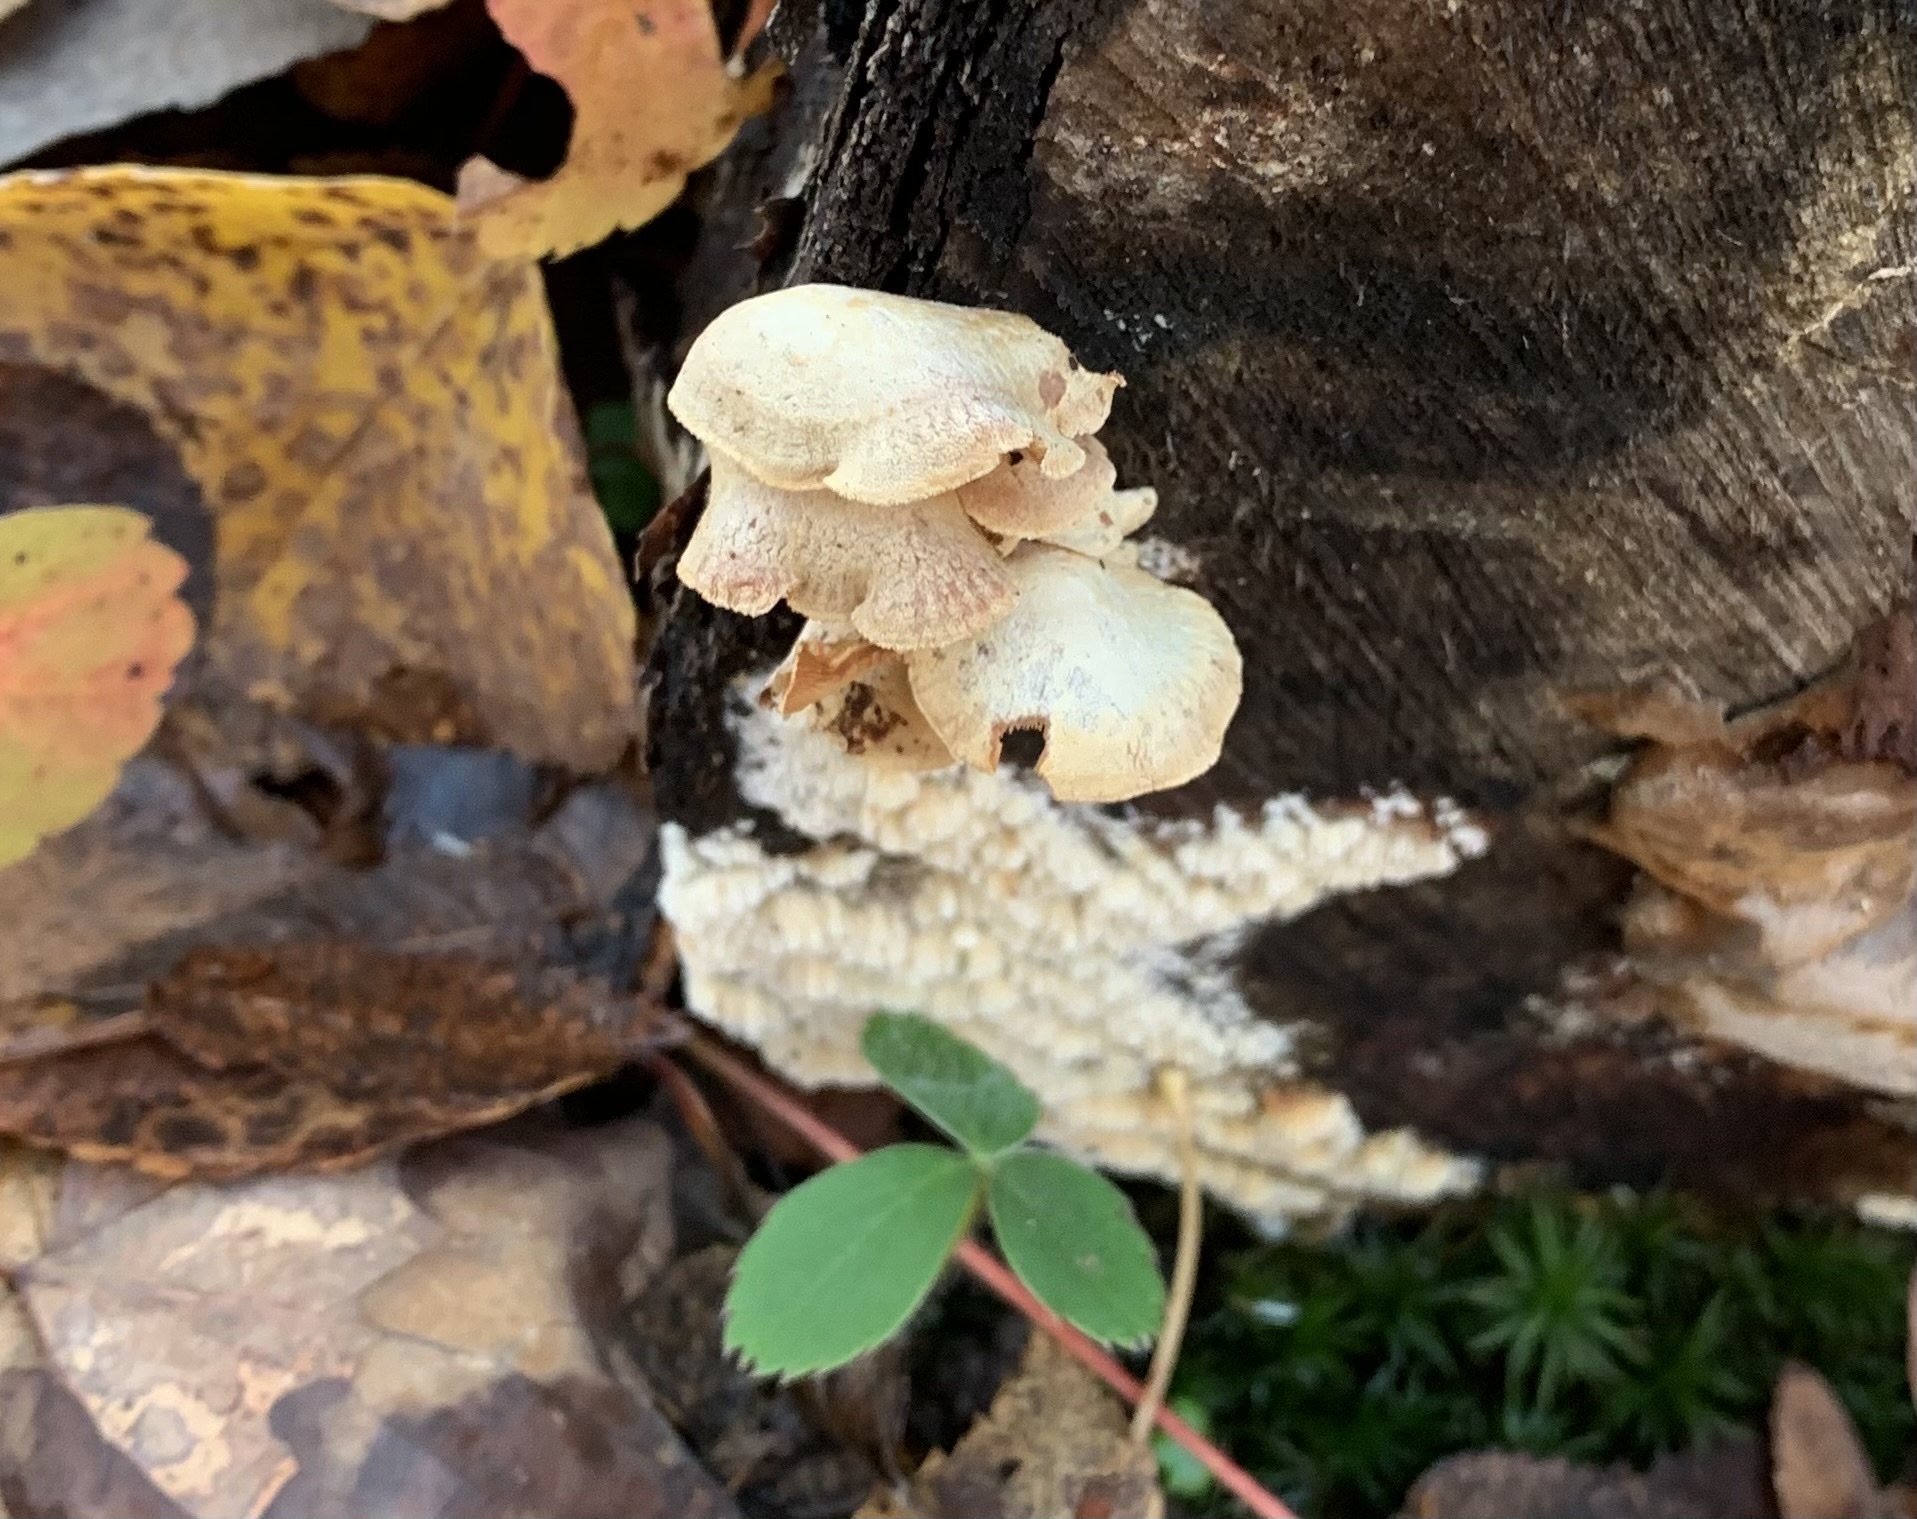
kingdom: Fungi
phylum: Basidiomycota
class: Agaricomycetes
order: Agaricales
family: Mycenaceae
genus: Panellus
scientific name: Panellus stipticus
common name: Bitter oysterling
